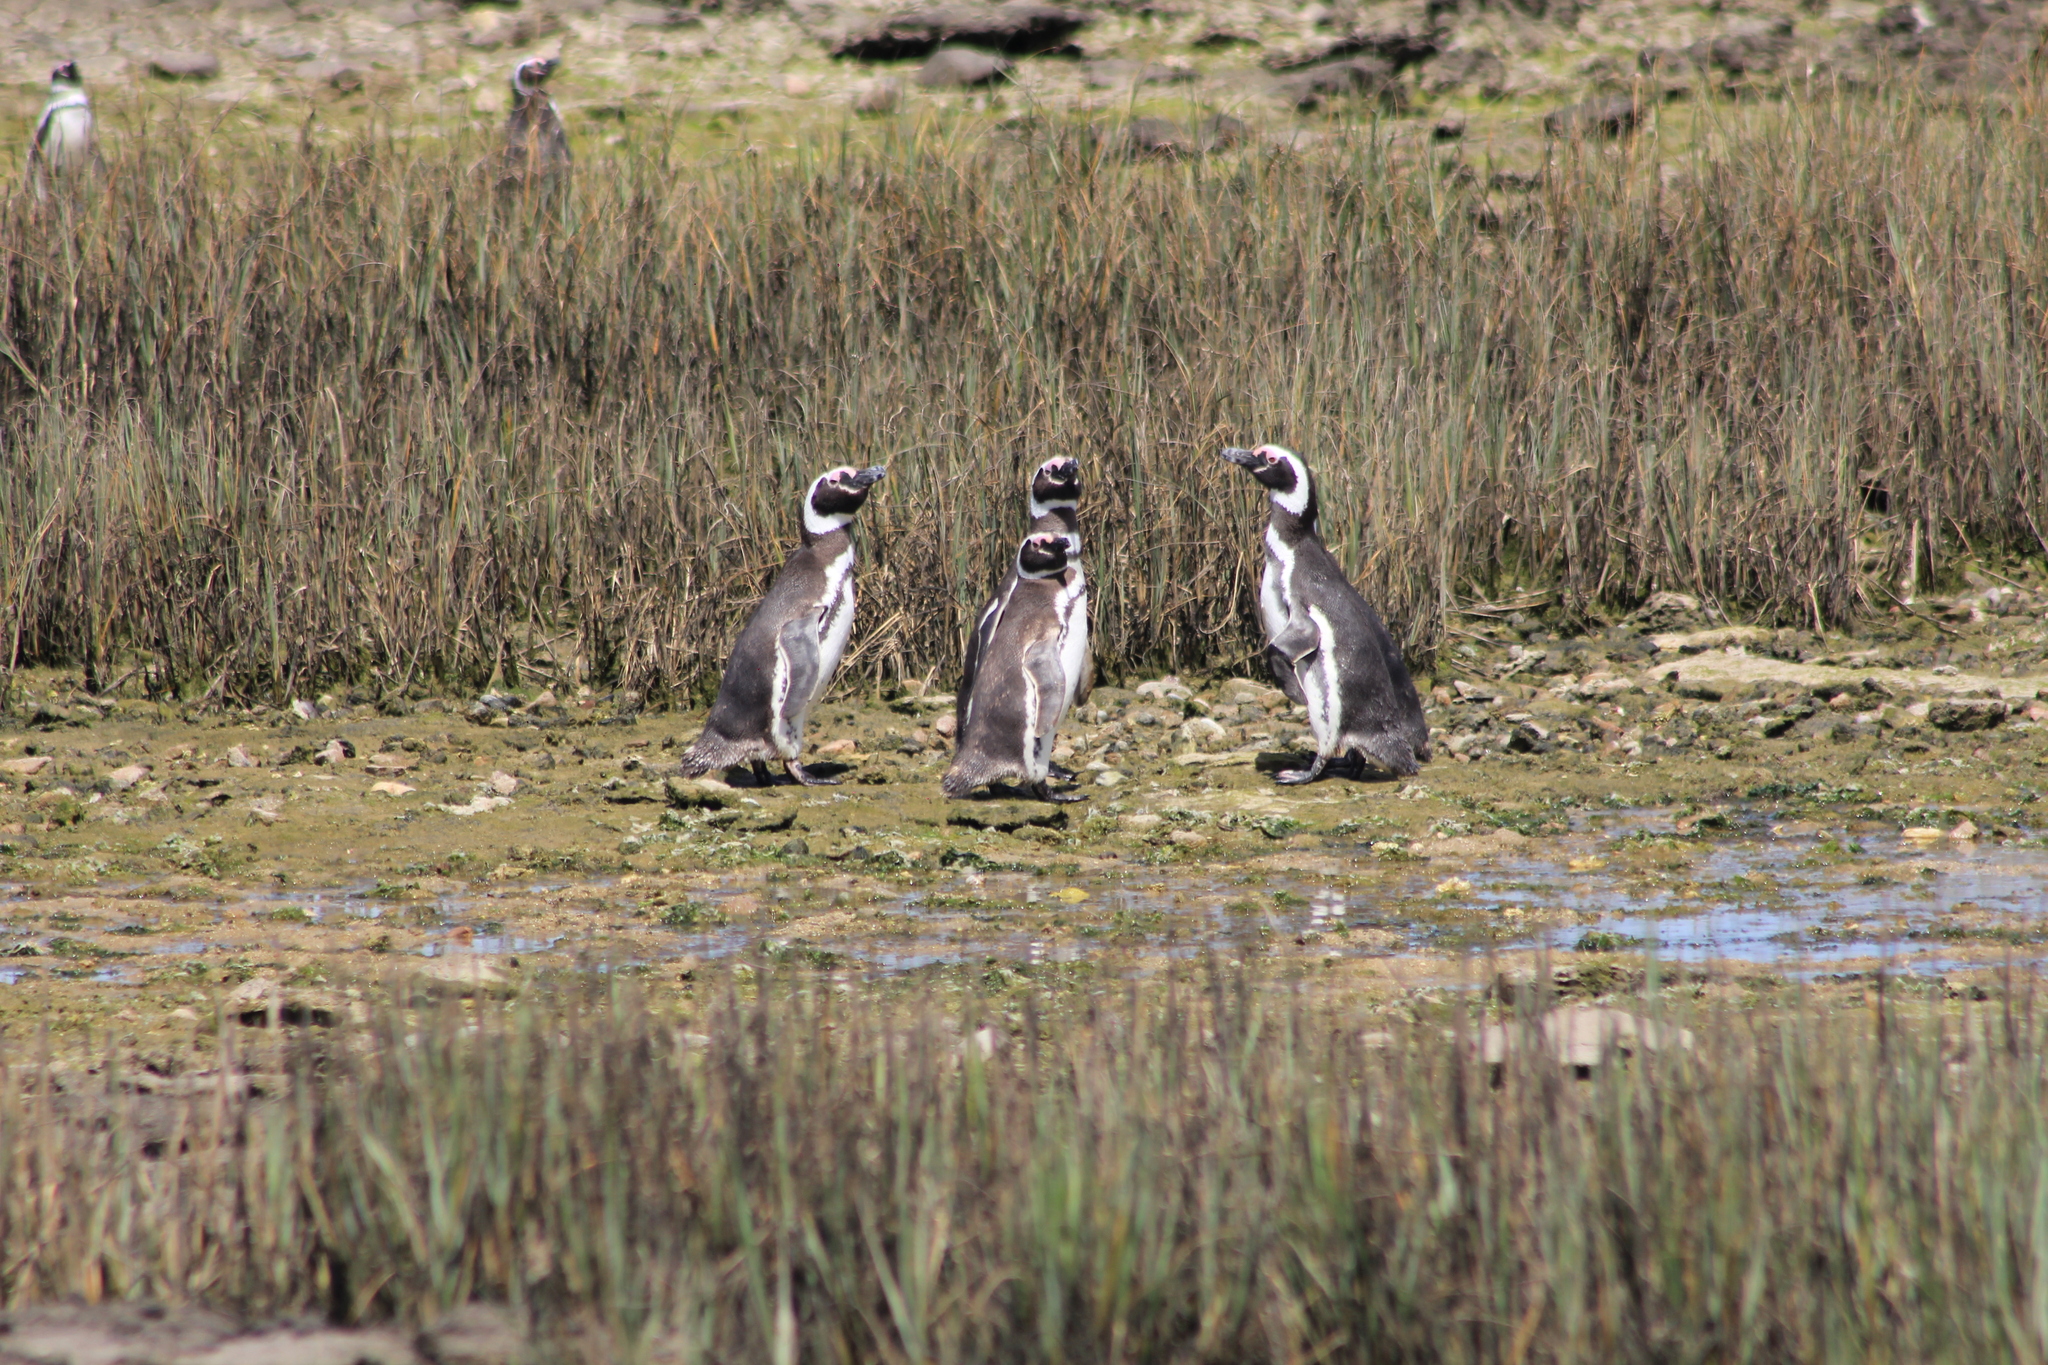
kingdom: Animalia
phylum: Chordata
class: Aves
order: Sphenisciformes
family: Spheniscidae
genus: Spheniscus
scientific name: Spheniscus magellanicus
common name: Magellanic penguin
